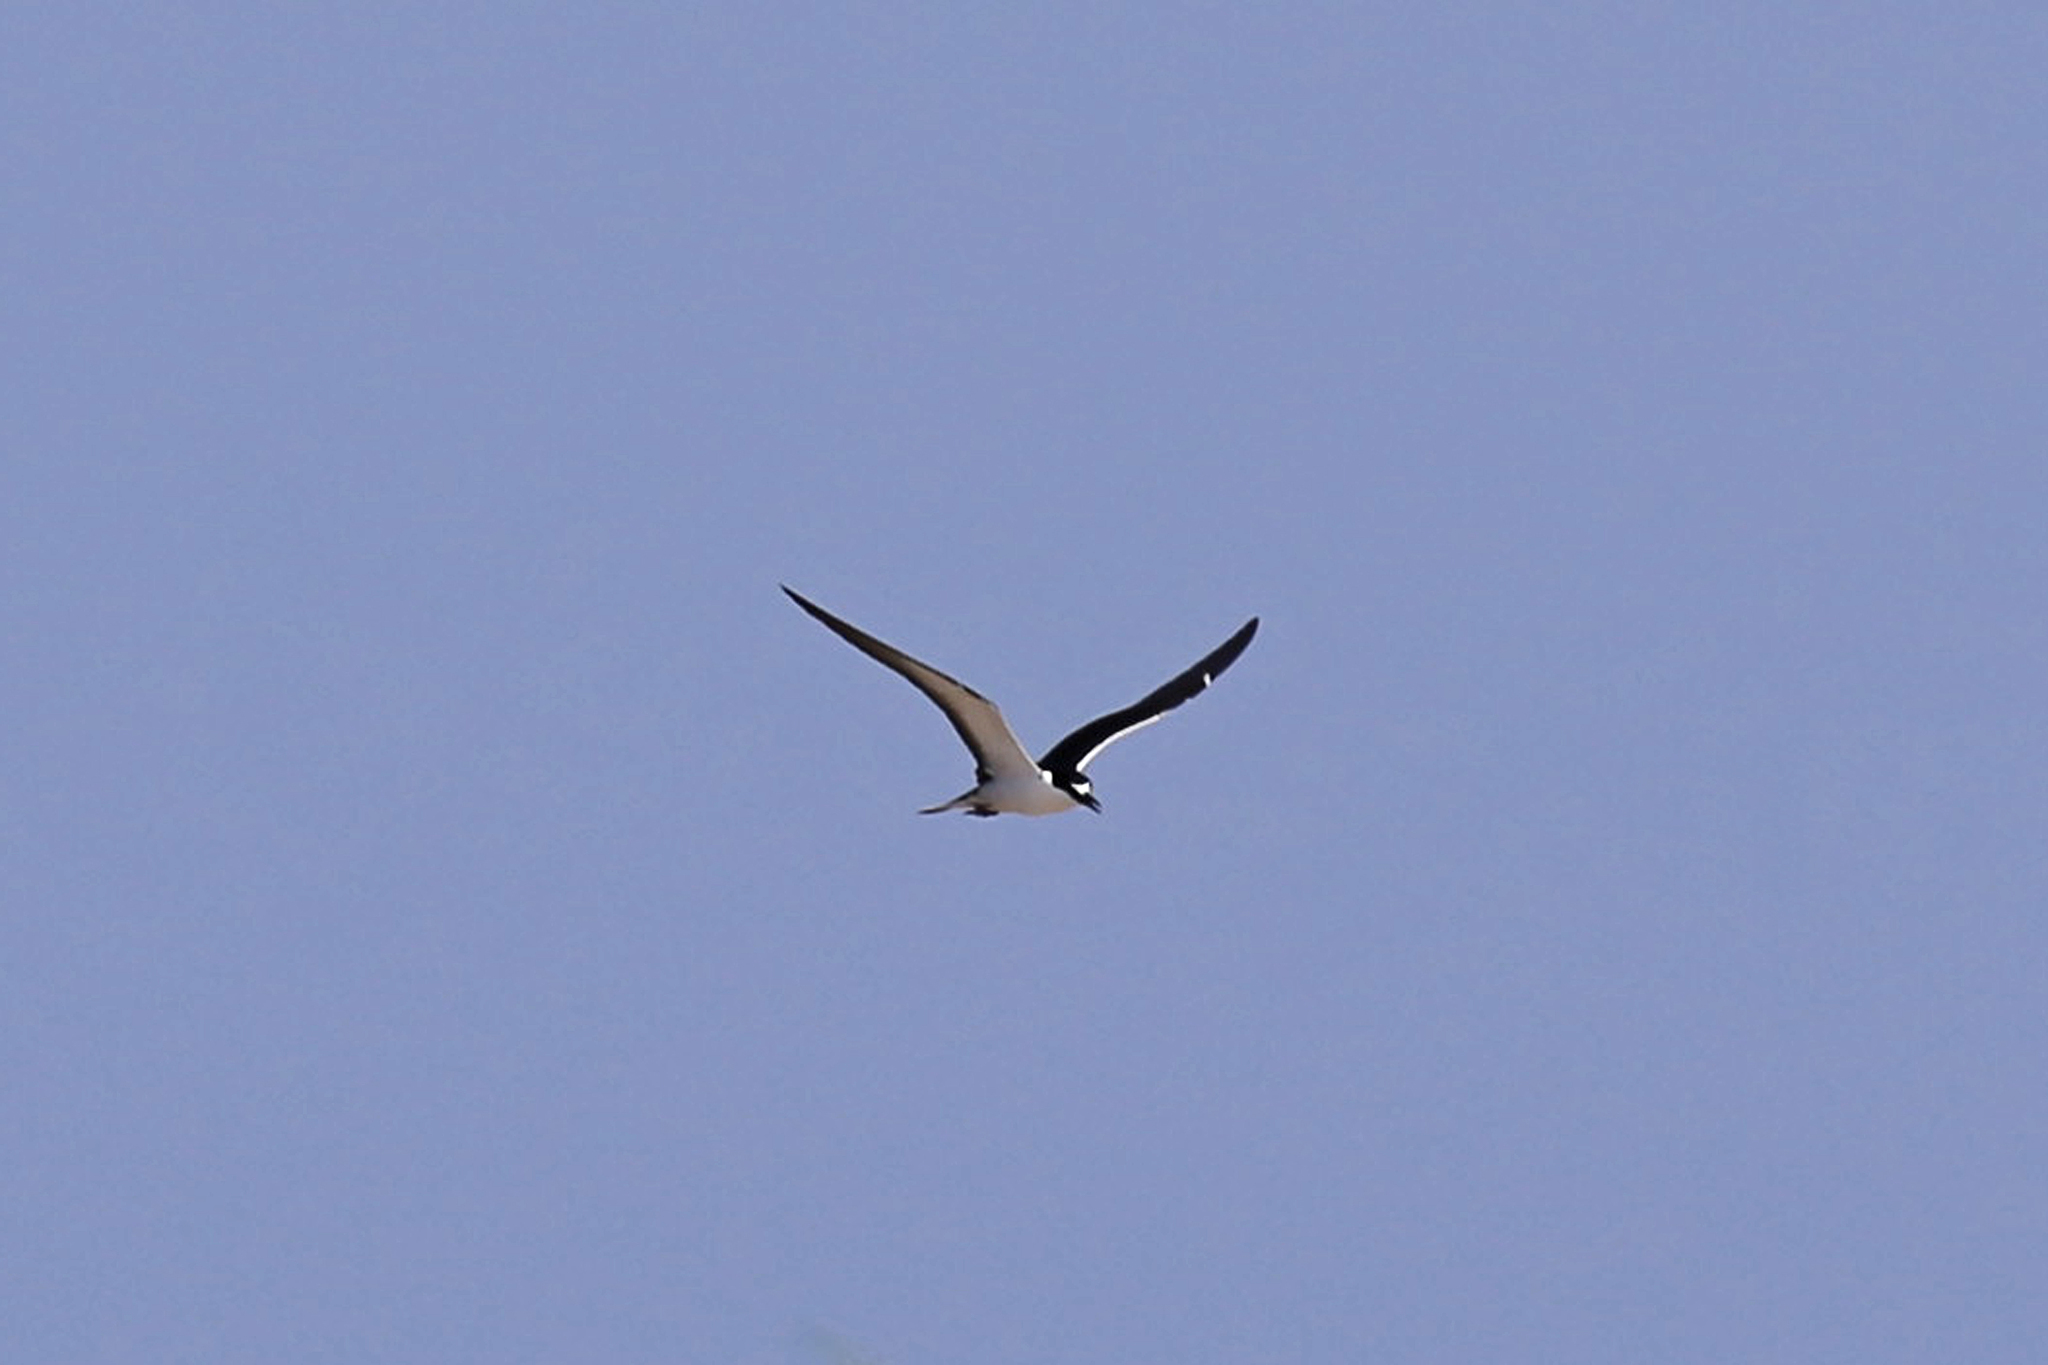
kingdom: Animalia
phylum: Chordata
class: Aves
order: Charadriiformes
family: Laridae
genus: Onychoprion
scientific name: Onychoprion fuscatus
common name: Sooty tern
